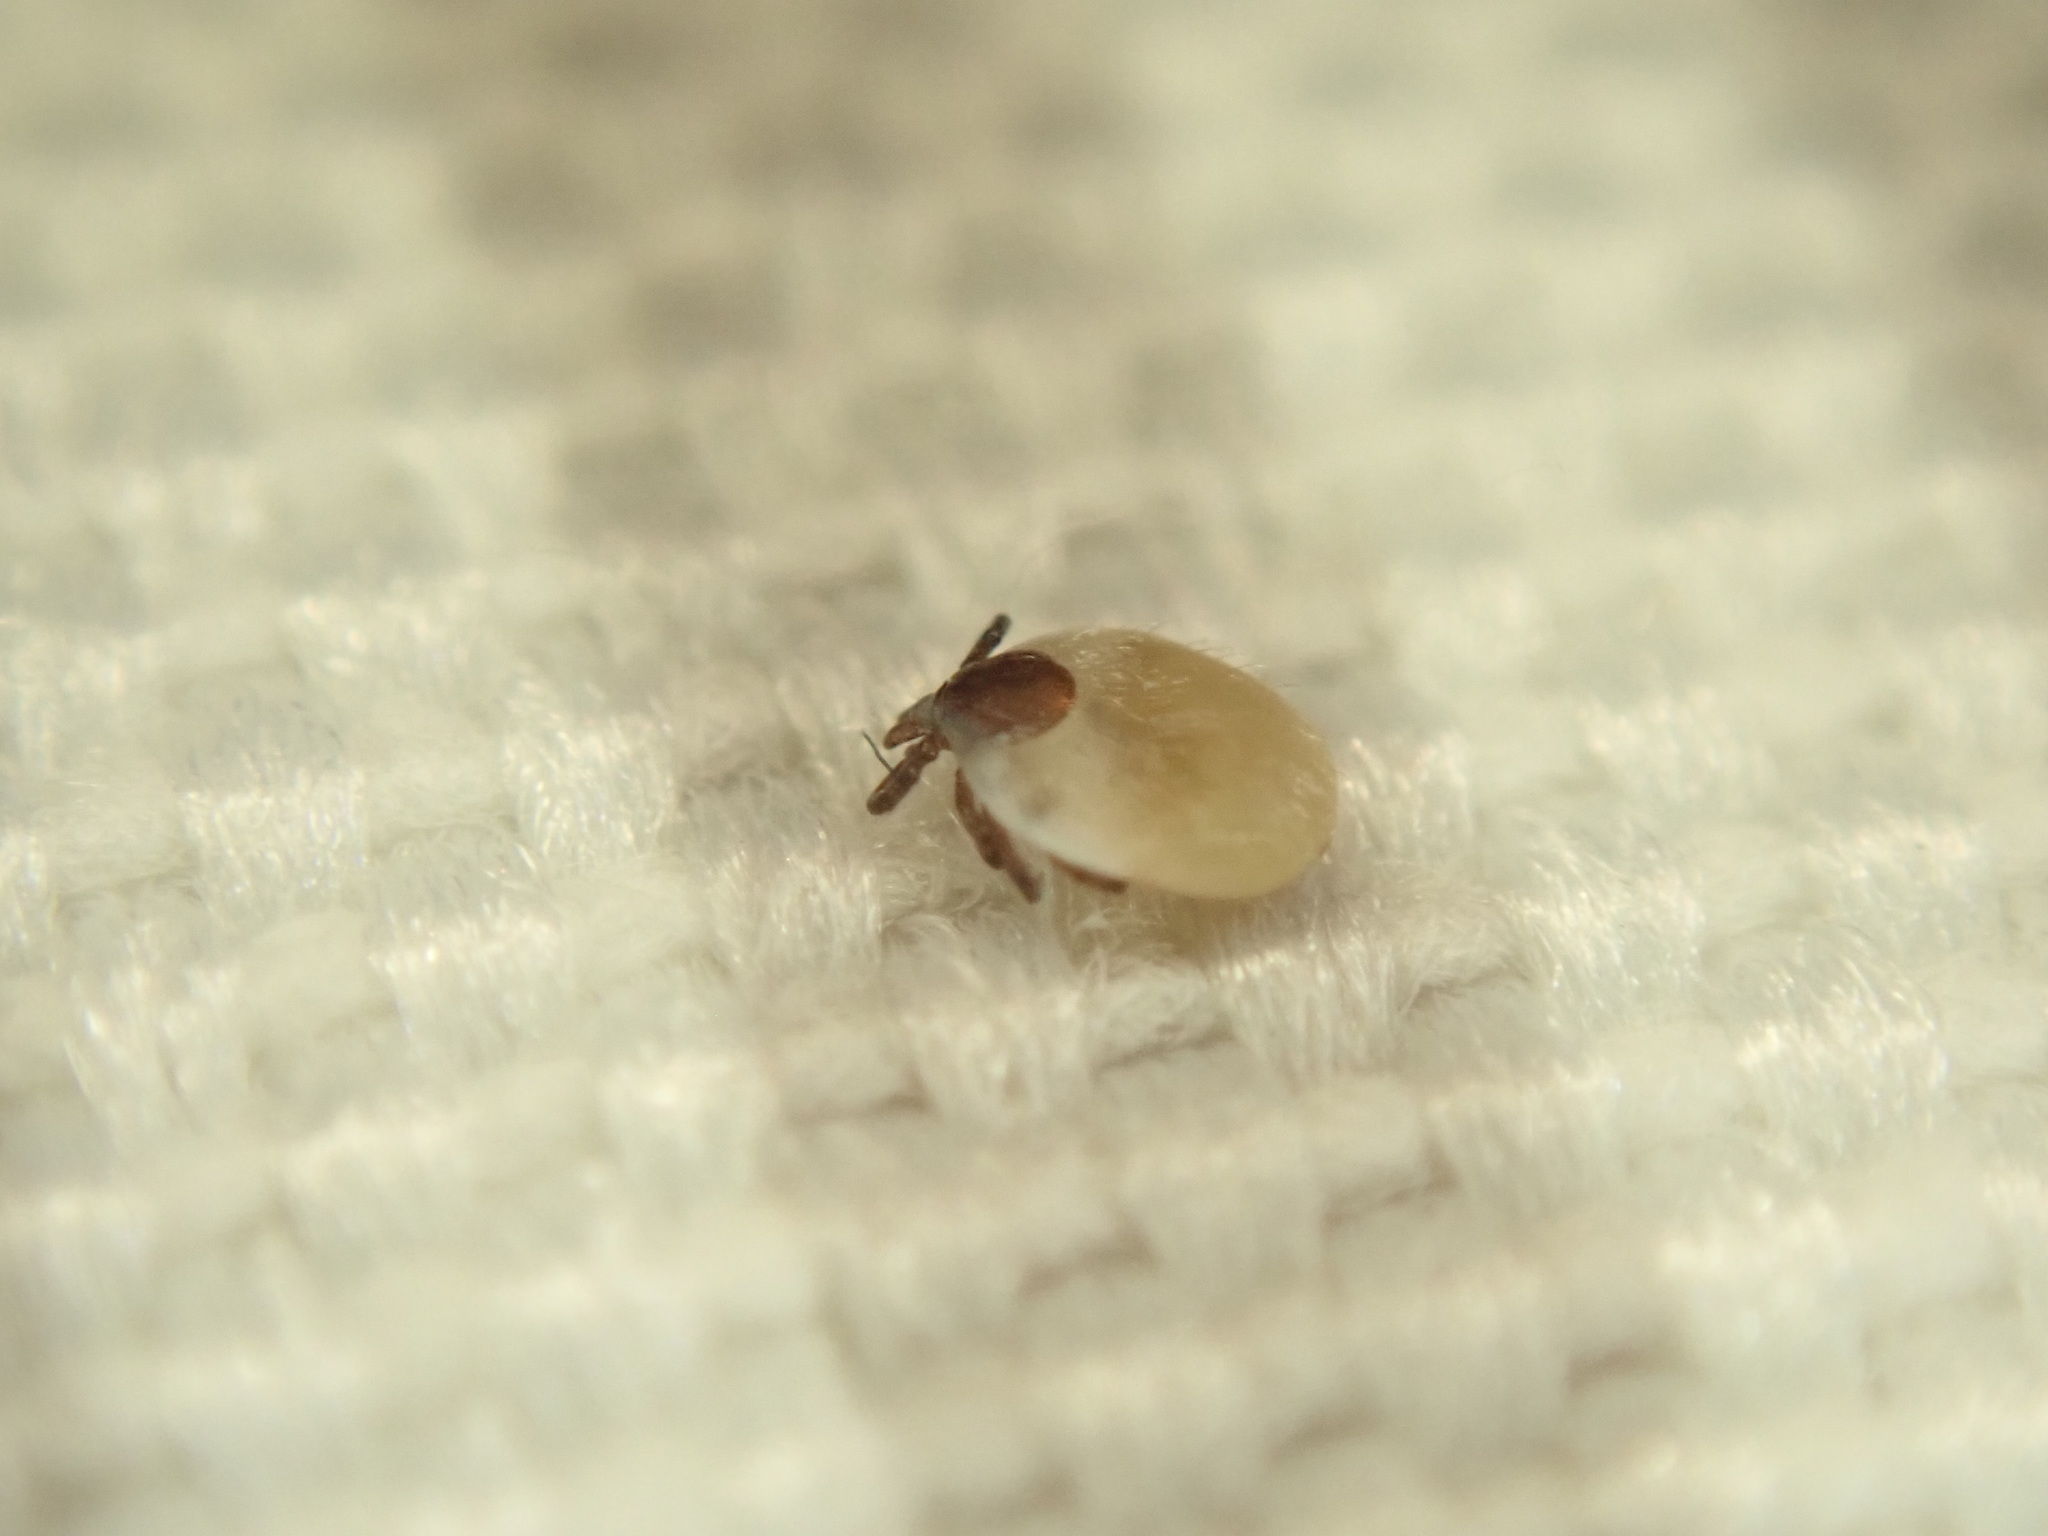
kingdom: Animalia
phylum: Arthropoda
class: Arachnida
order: Ixodida
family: Ixodidae
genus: Ixodes
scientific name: Ixodes
